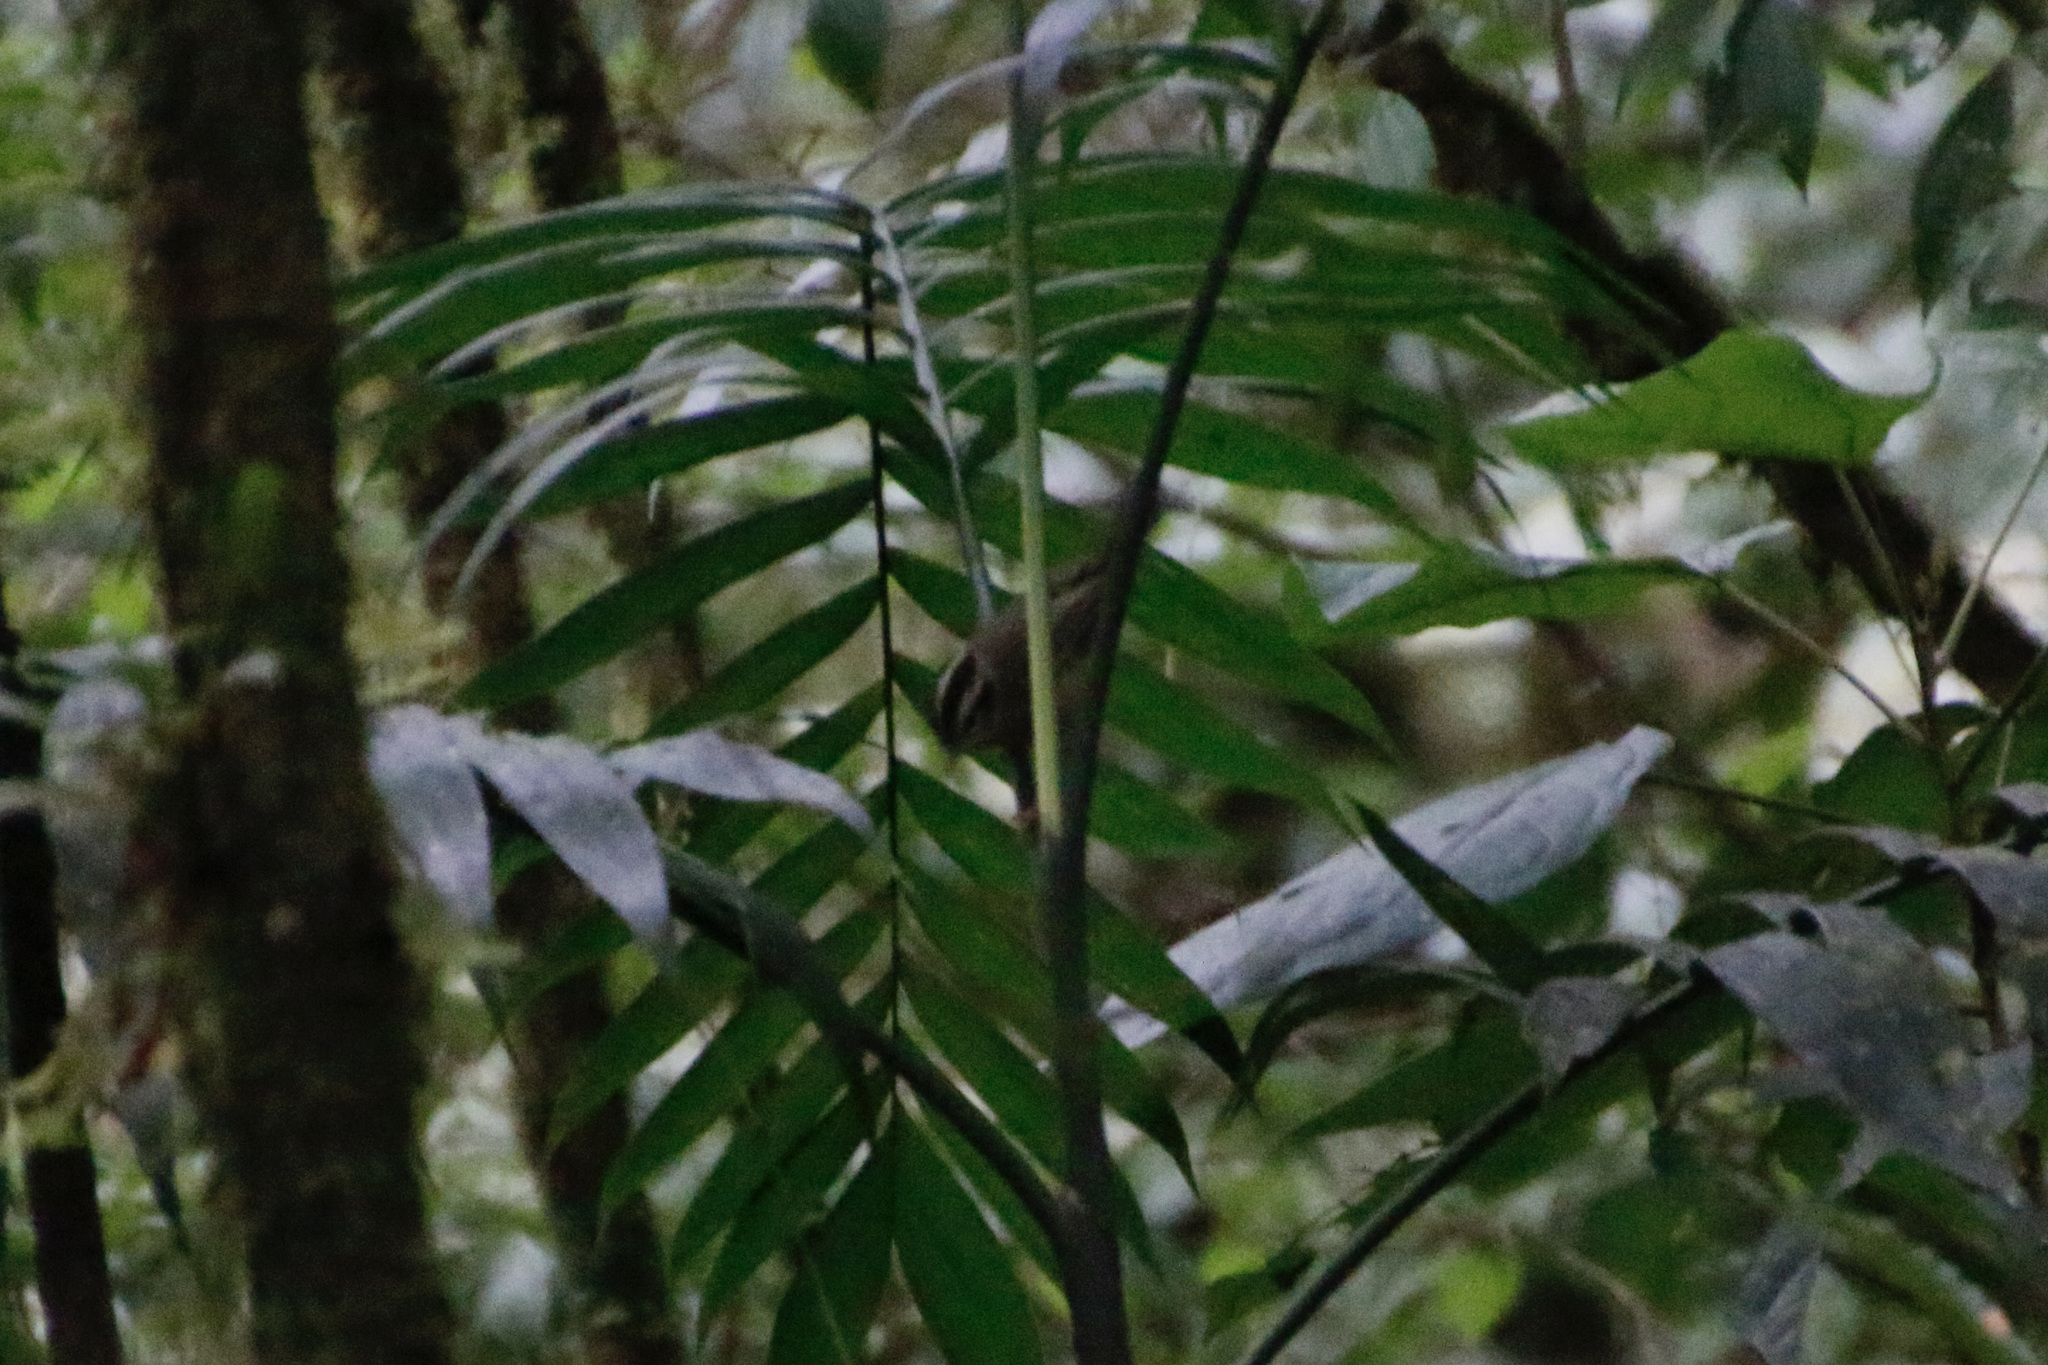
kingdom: Animalia
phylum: Chordata
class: Aves
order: Passeriformes
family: Parulidae
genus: Basileuterus
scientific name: Basileuterus melanotis
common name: Black-eared warbler
